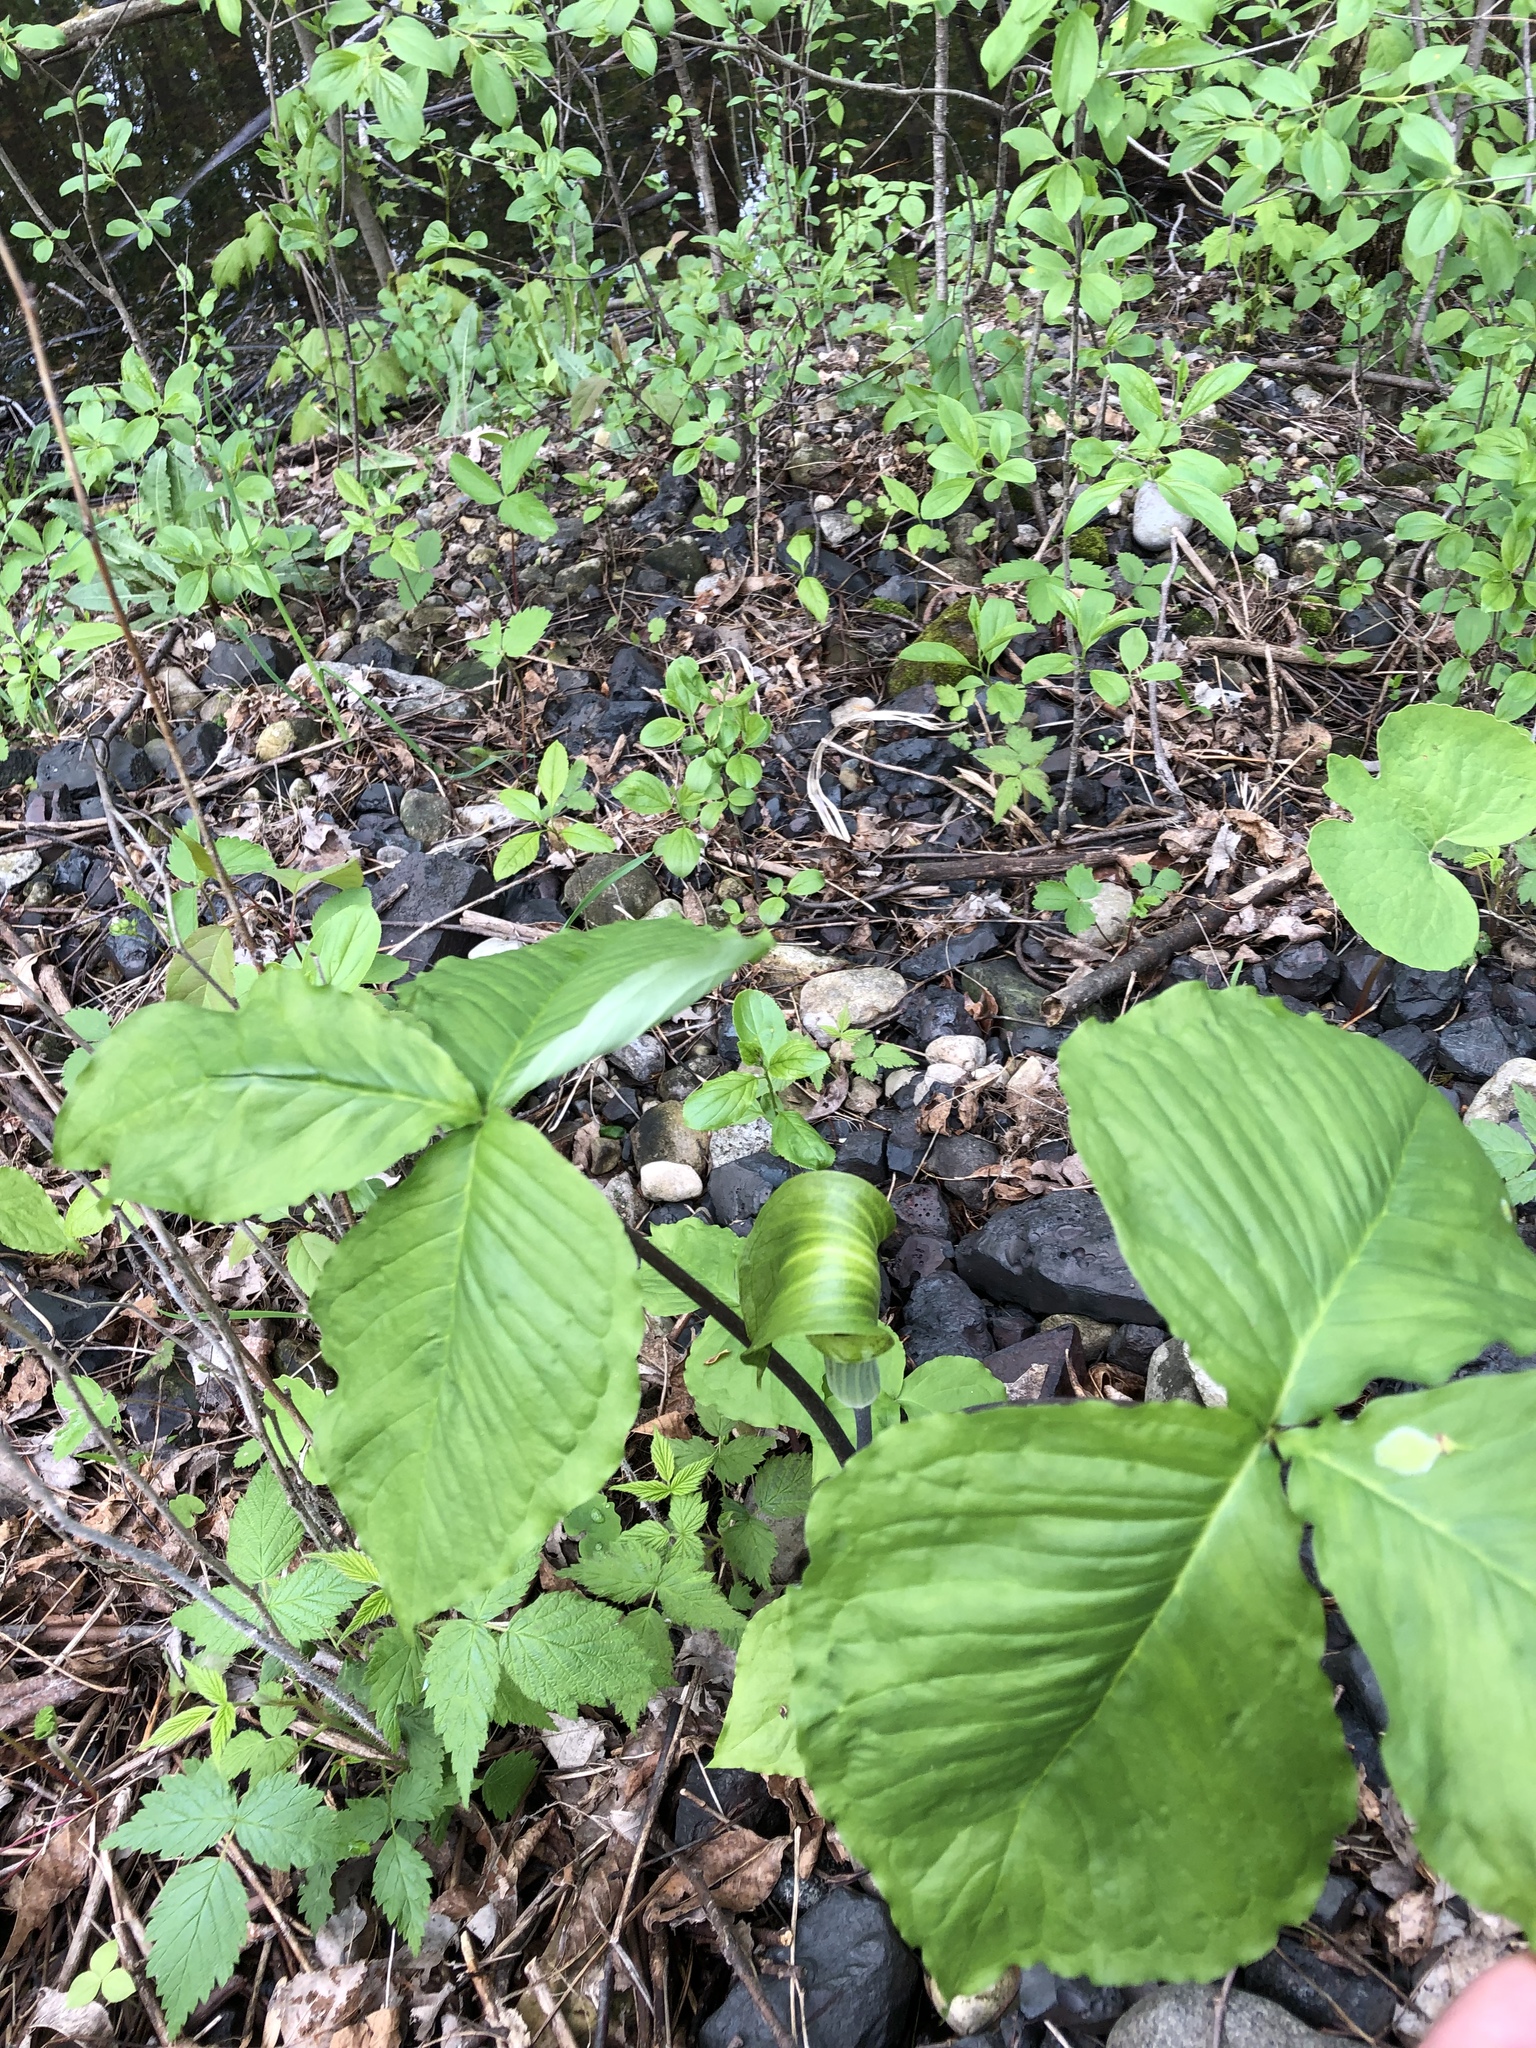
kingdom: Plantae
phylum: Tracheophyta
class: Liliopsida
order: Alismatales
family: Araceae
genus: Arisaema
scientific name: Arisaema triphyllum
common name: Jack-in-the-pulpit
